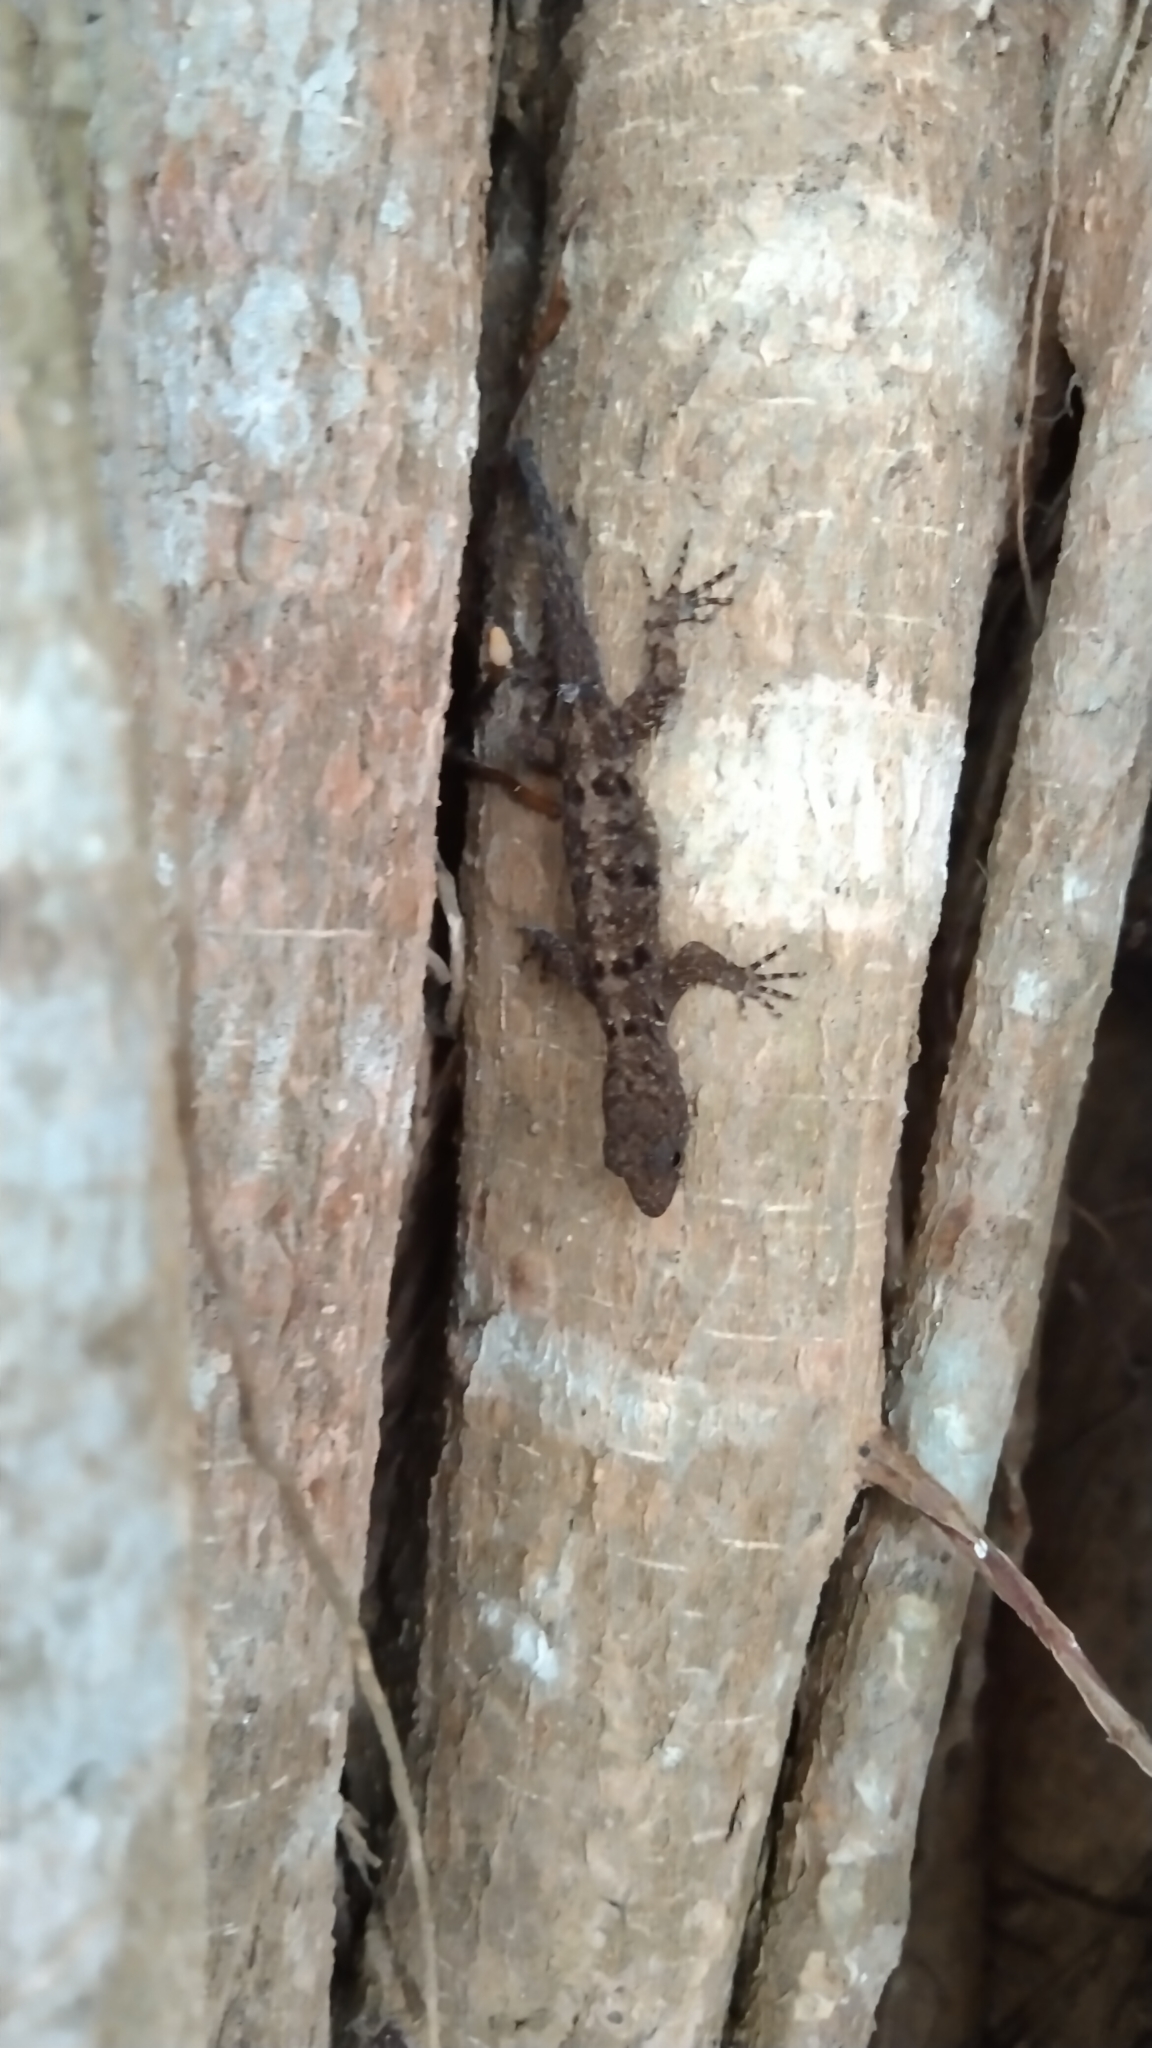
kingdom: Animalia
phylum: Chordata
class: Squamata
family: Sphaerodactylidae
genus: Gonatodes
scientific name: Gonatodes albogularis
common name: Yellow-headed gecko
